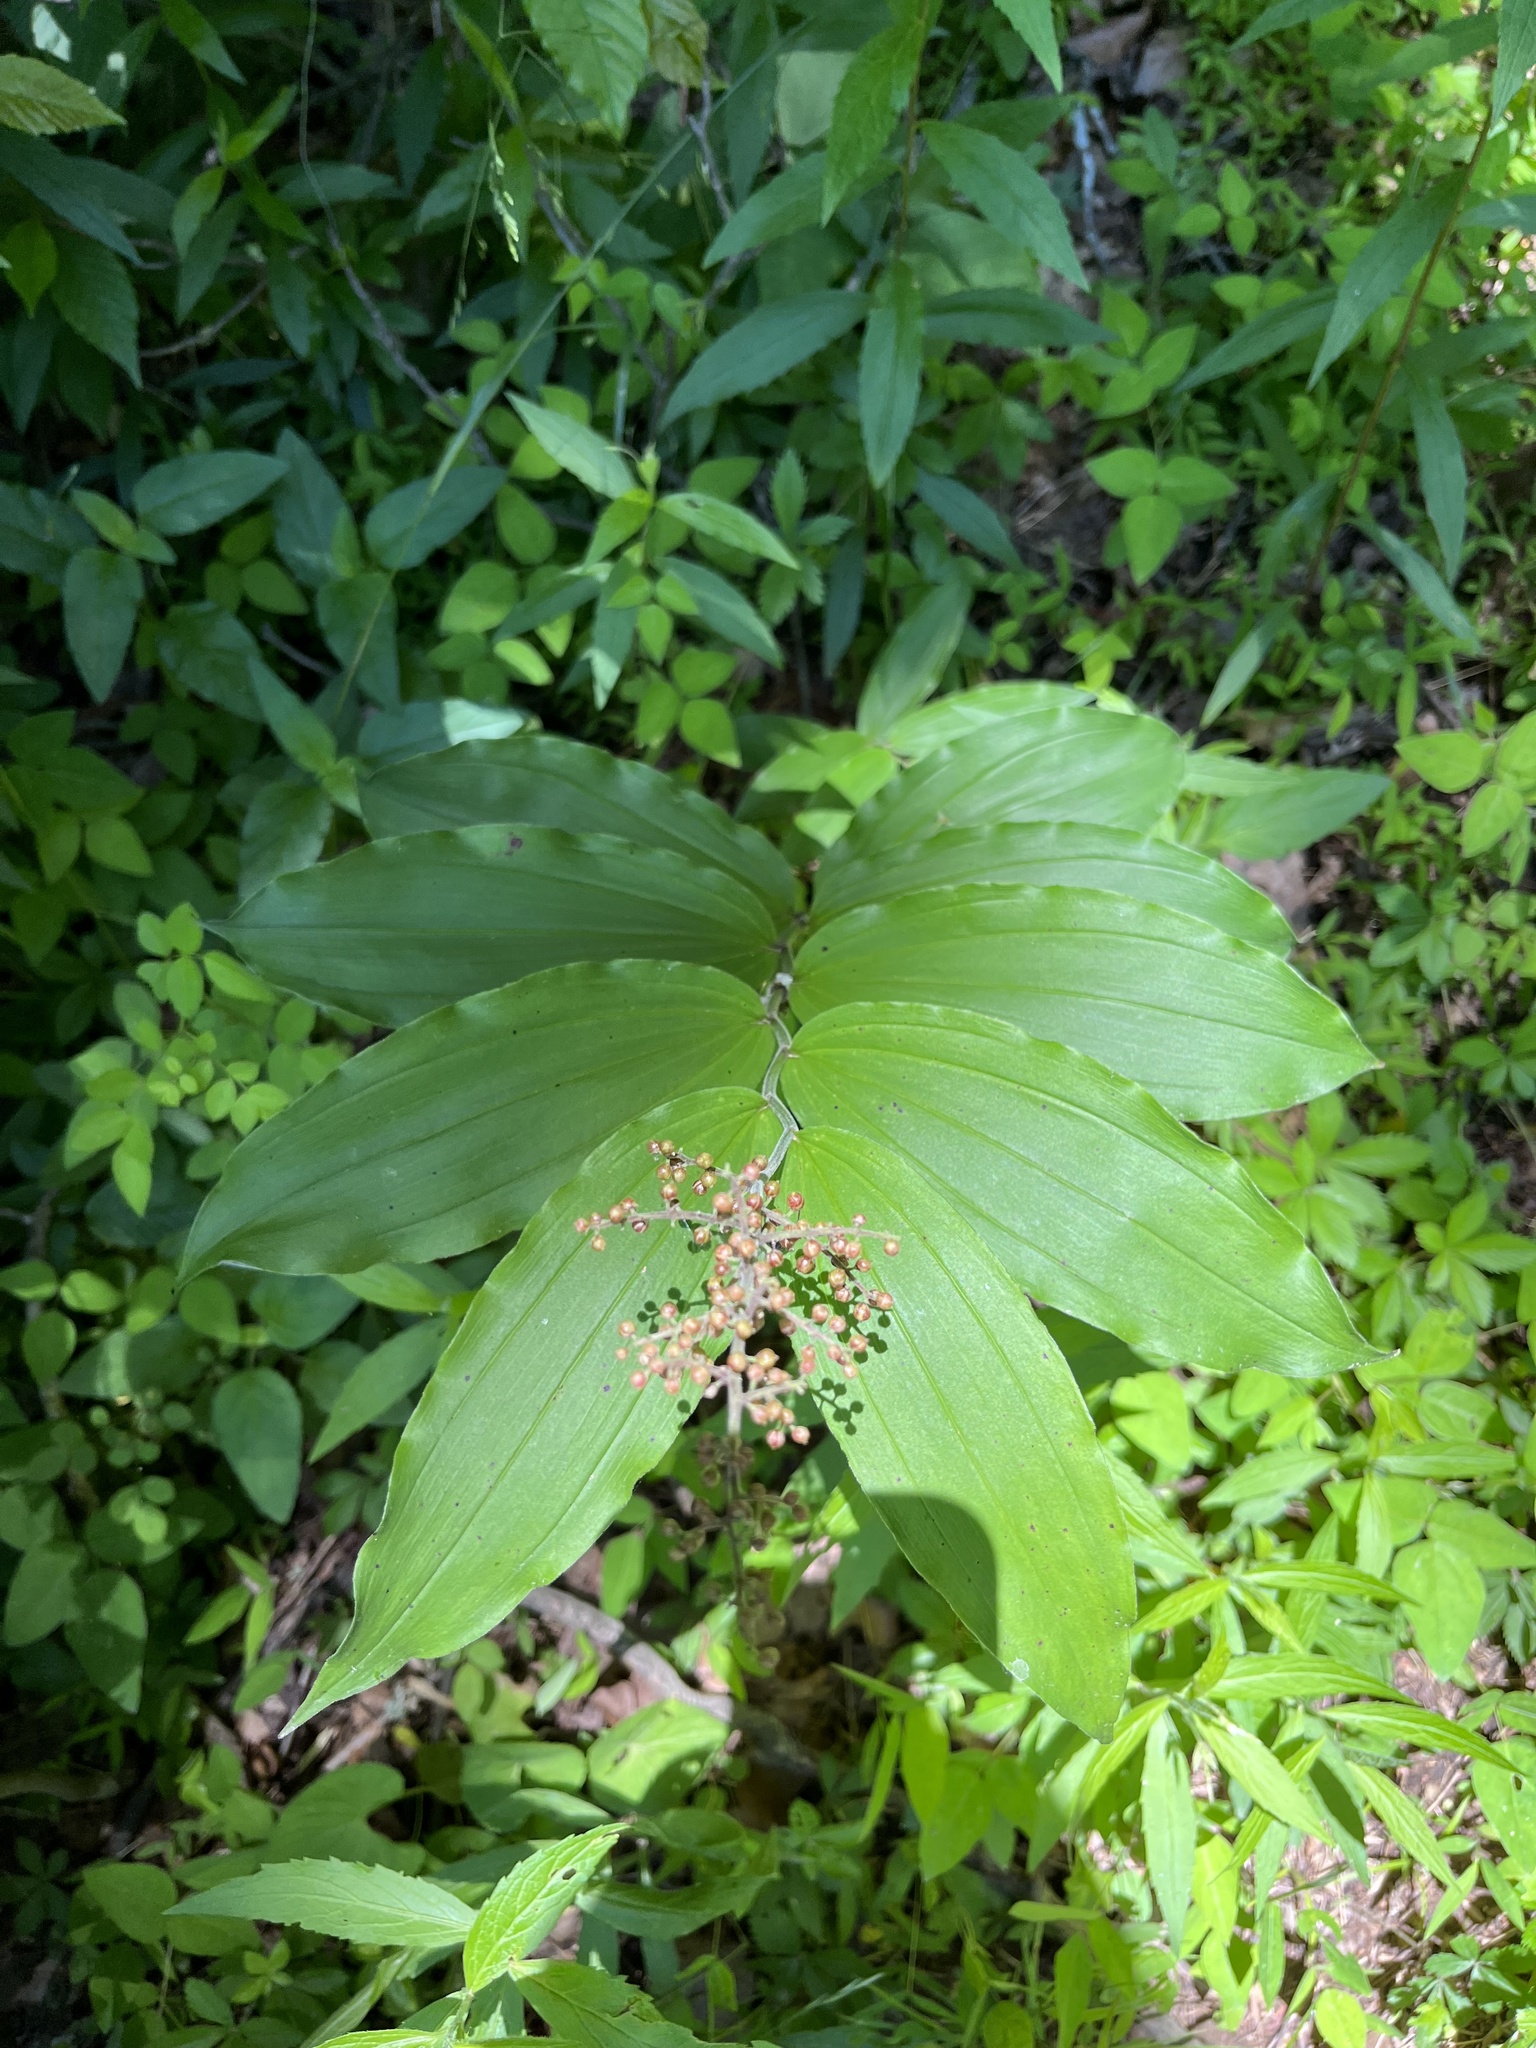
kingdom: Plantae
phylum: Tracheophyta
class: Liliopsida
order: Asparagales
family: Asparagaceae
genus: Maianthemum
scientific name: Maianthemum racemosum
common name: False spikenard
